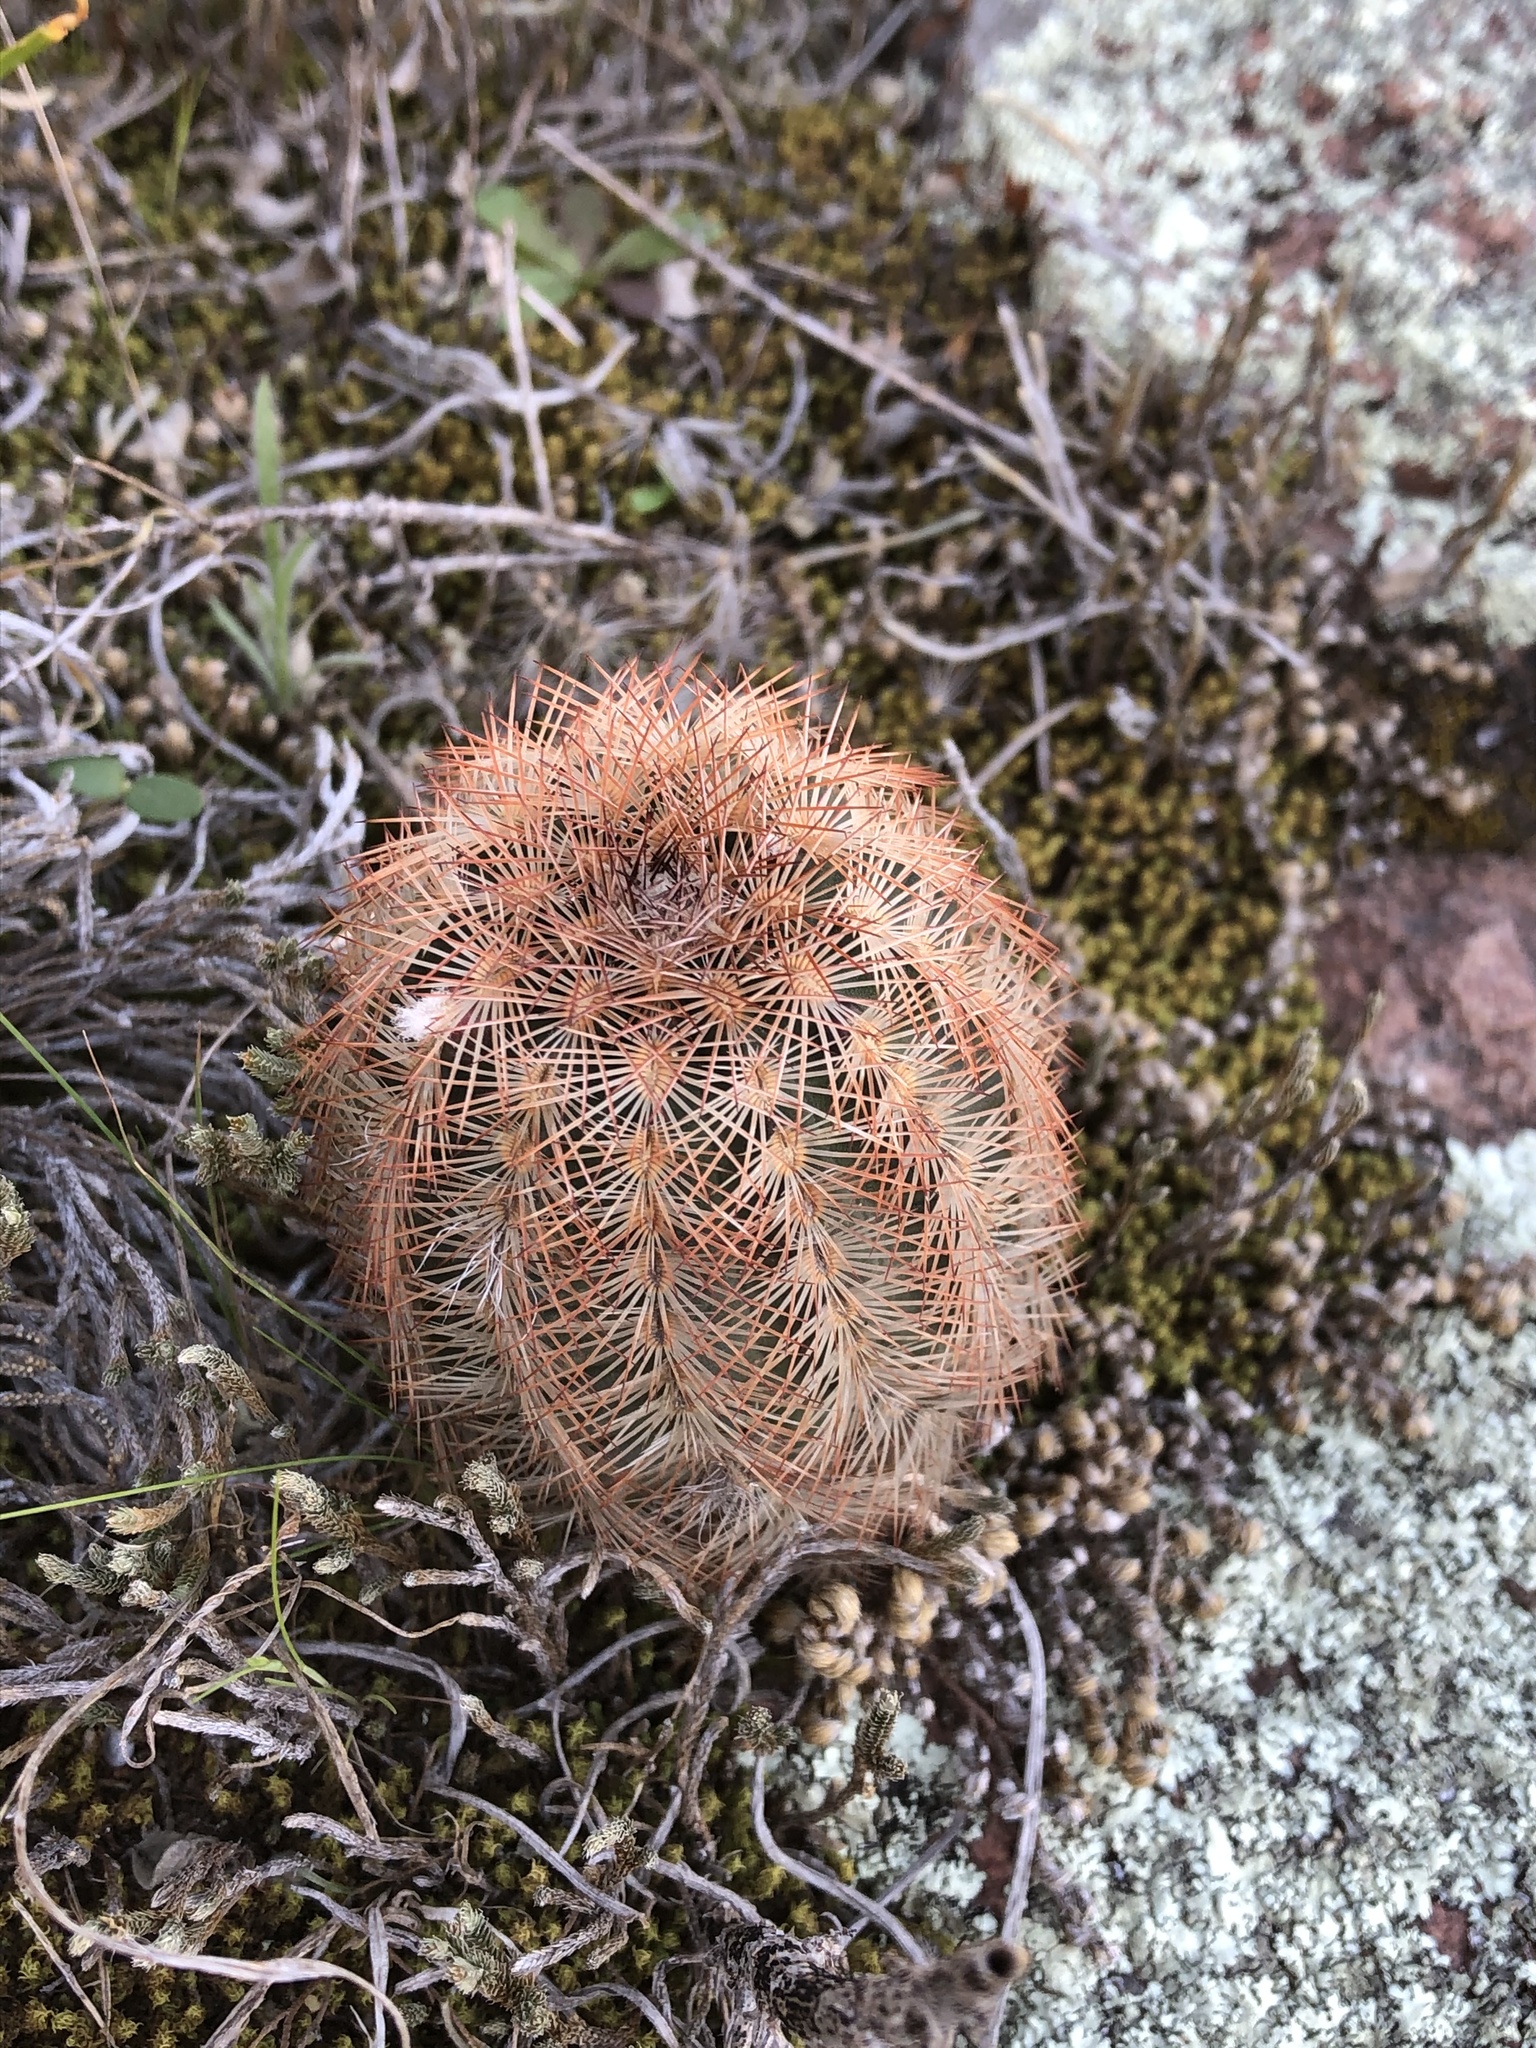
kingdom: Plantae
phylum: Tracheophyta
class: Magnoliopsida
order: Caryophyllales
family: Cactaceae
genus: Echinocereus
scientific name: Echinocereus reichenbachii
